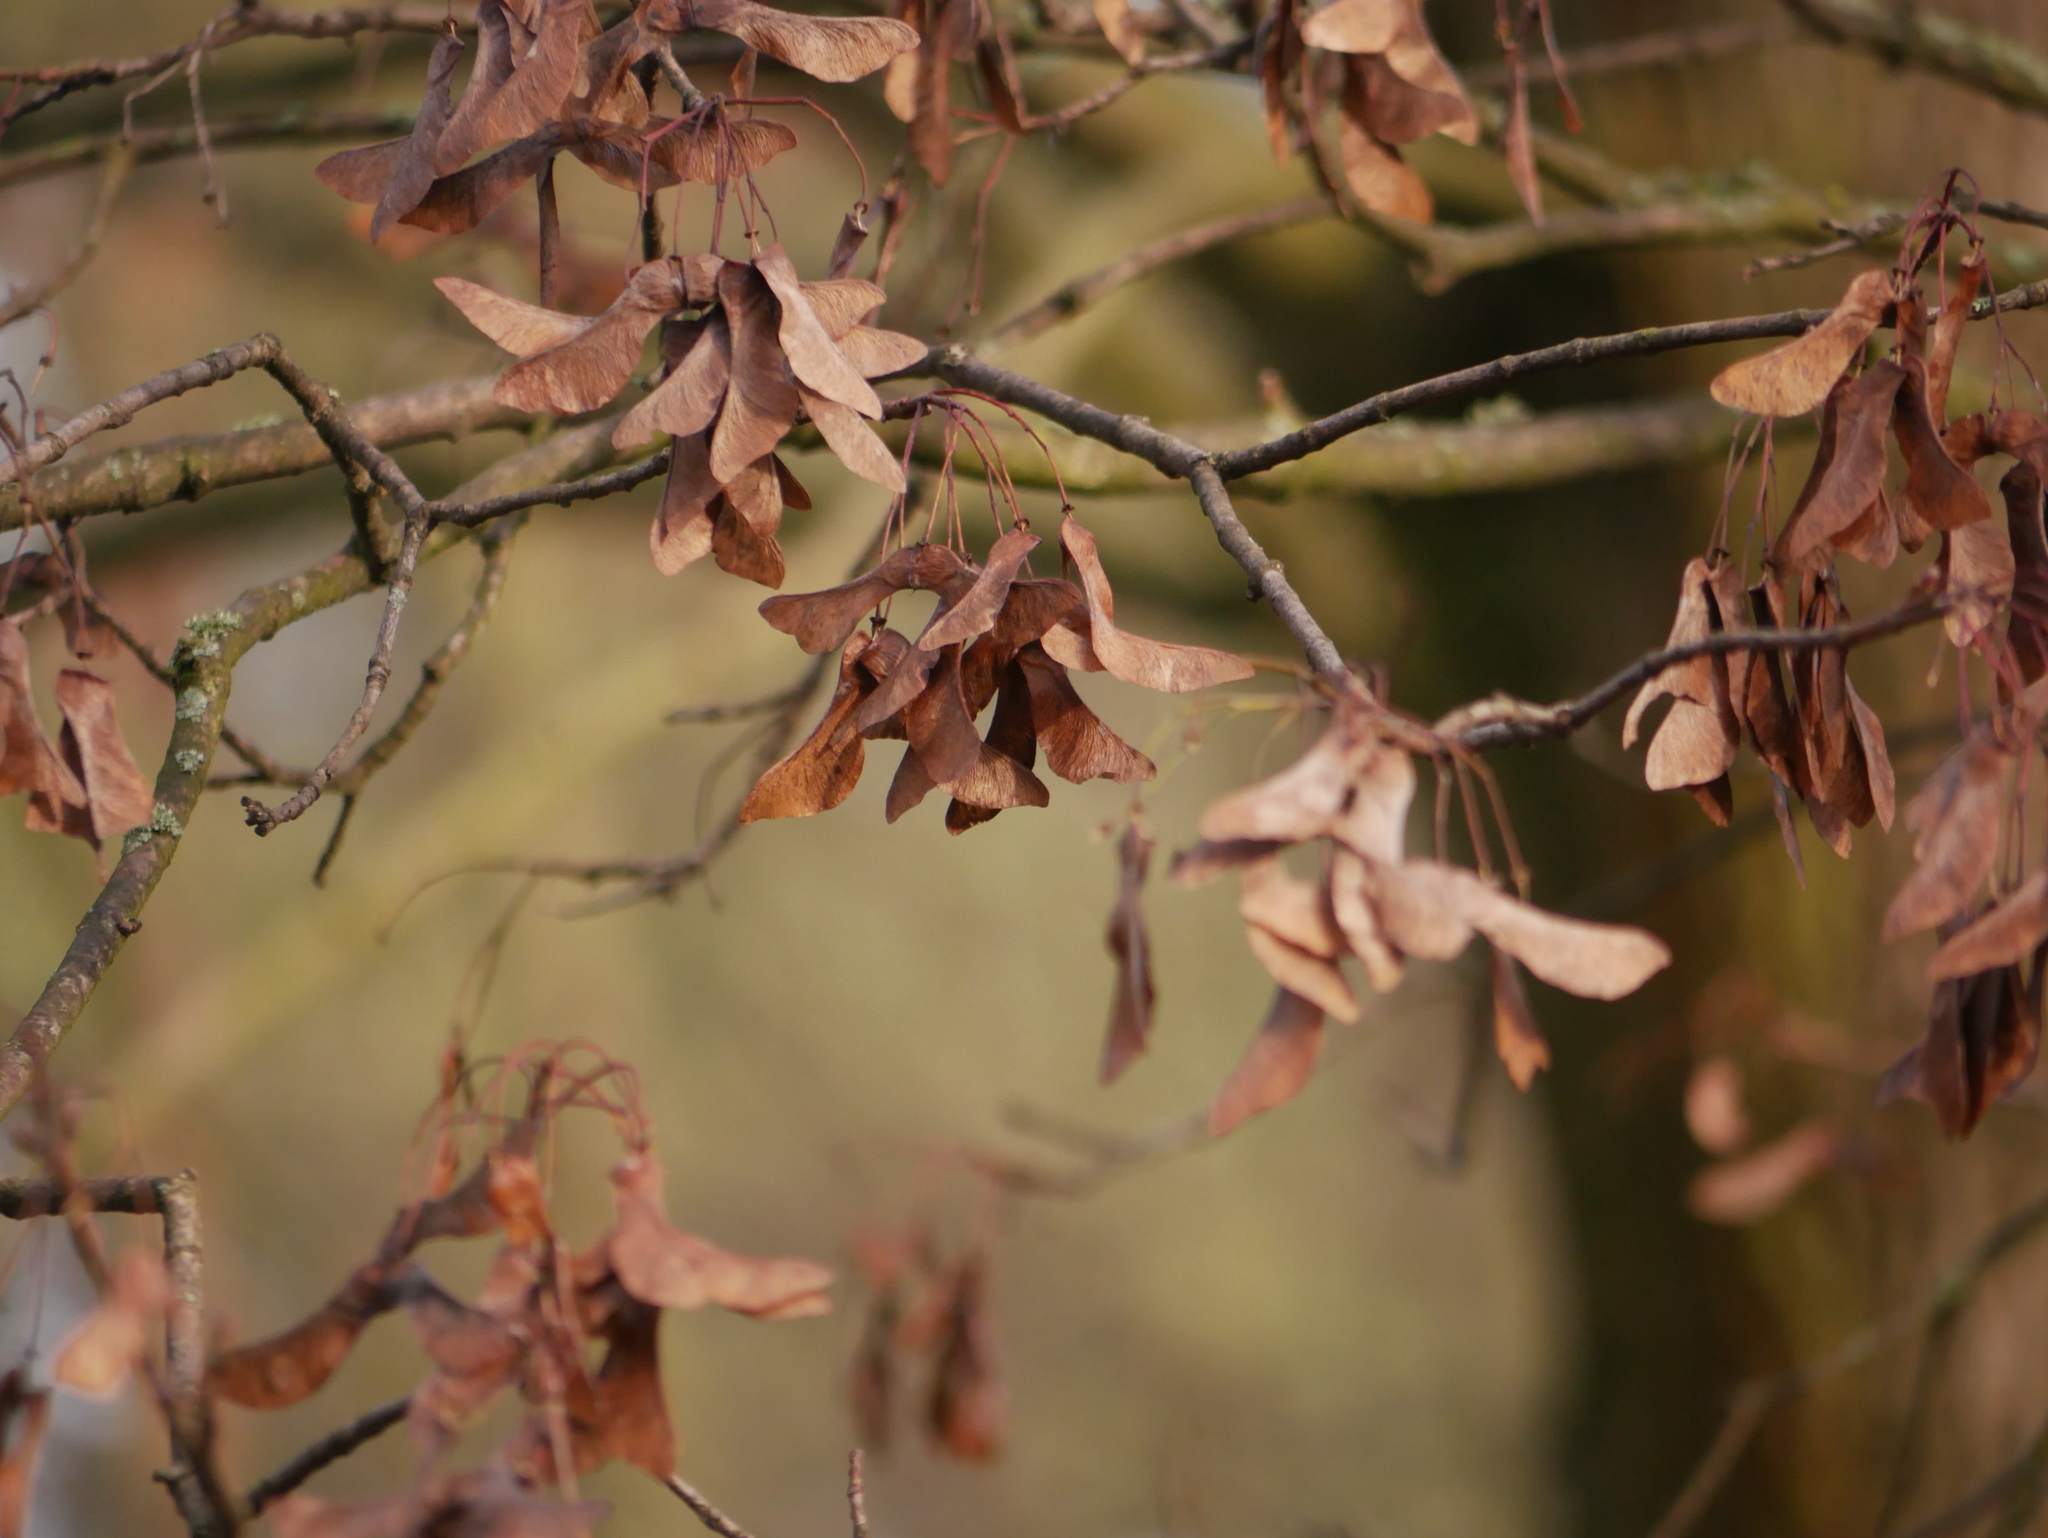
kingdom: Plantae
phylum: Tracheophyta
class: Magnoliopsida
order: Sapindales
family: Sapindaceae
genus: Acer
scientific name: Acer campestre
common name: Field maple
